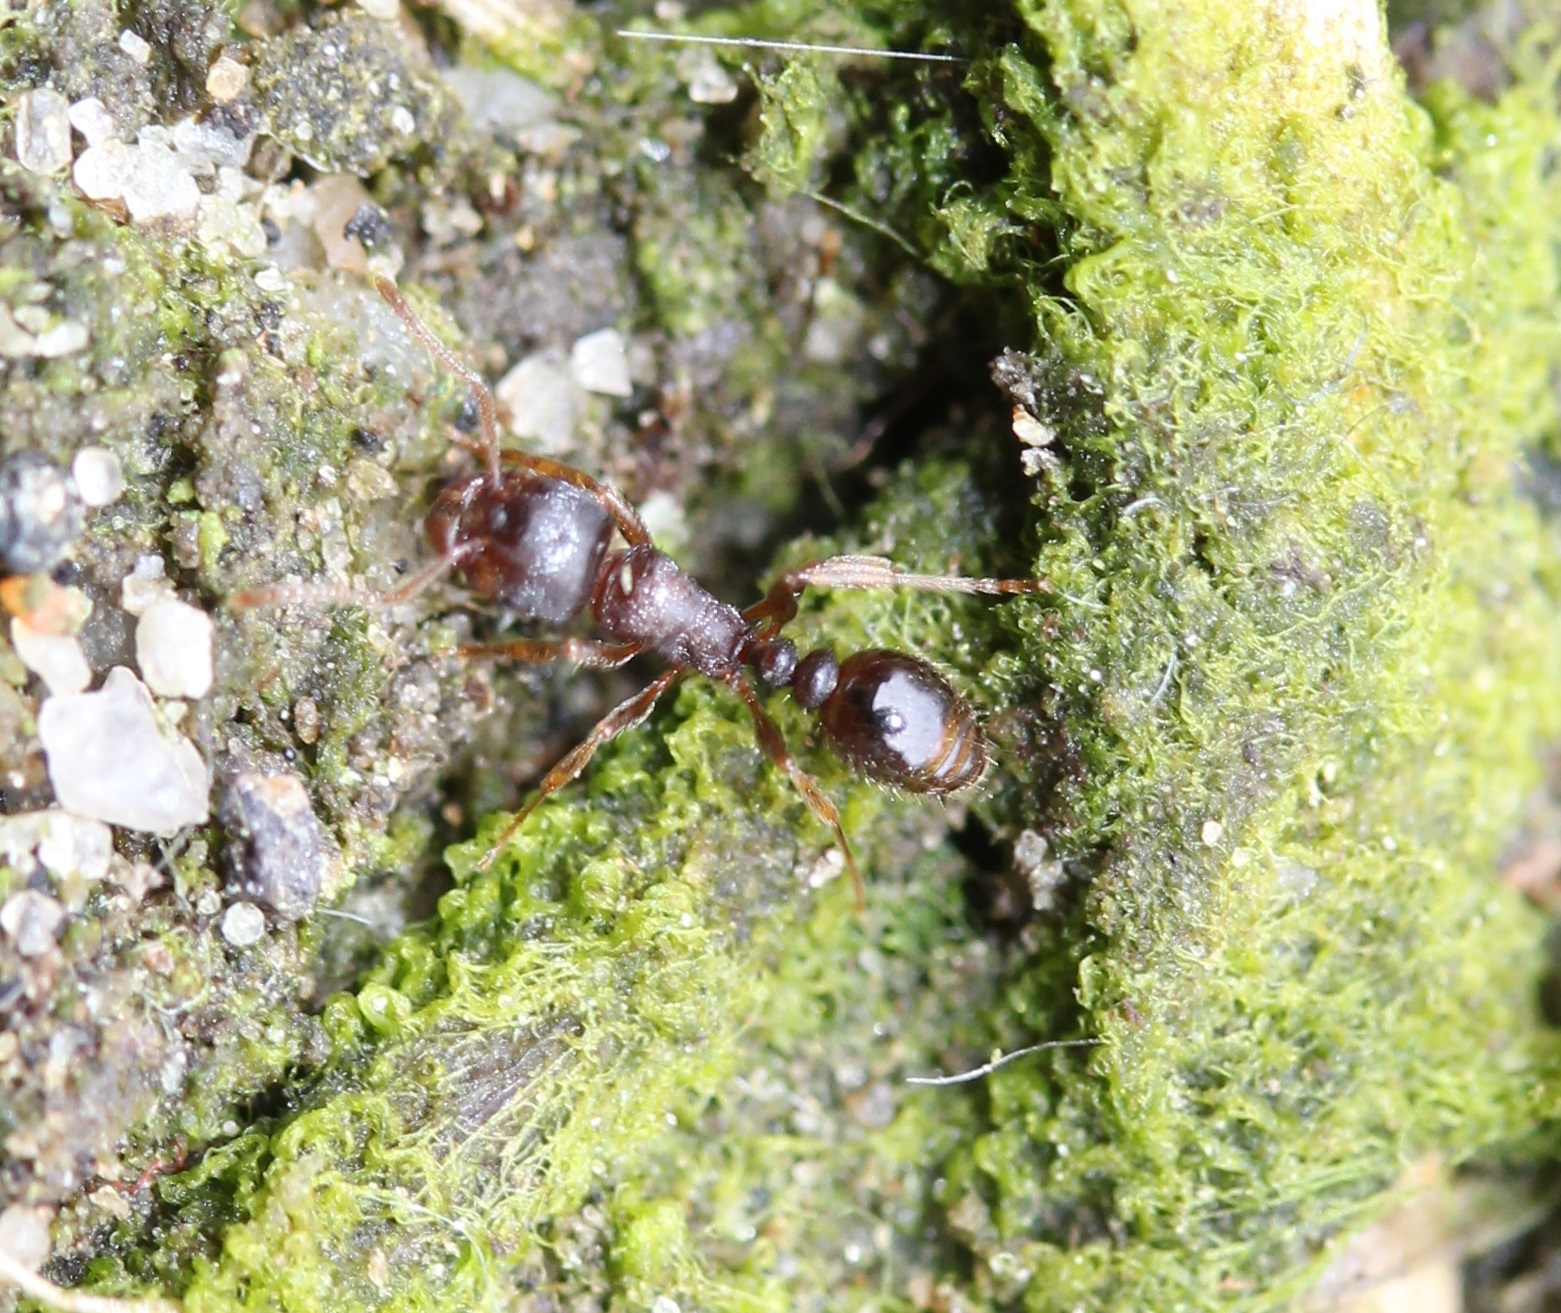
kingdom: Animalia
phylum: Arthropoda
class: Insecta
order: Hymenoptera
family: Formicidae
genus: Tetramorium
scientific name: Tetramorium immigrans
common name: Pavement ant
